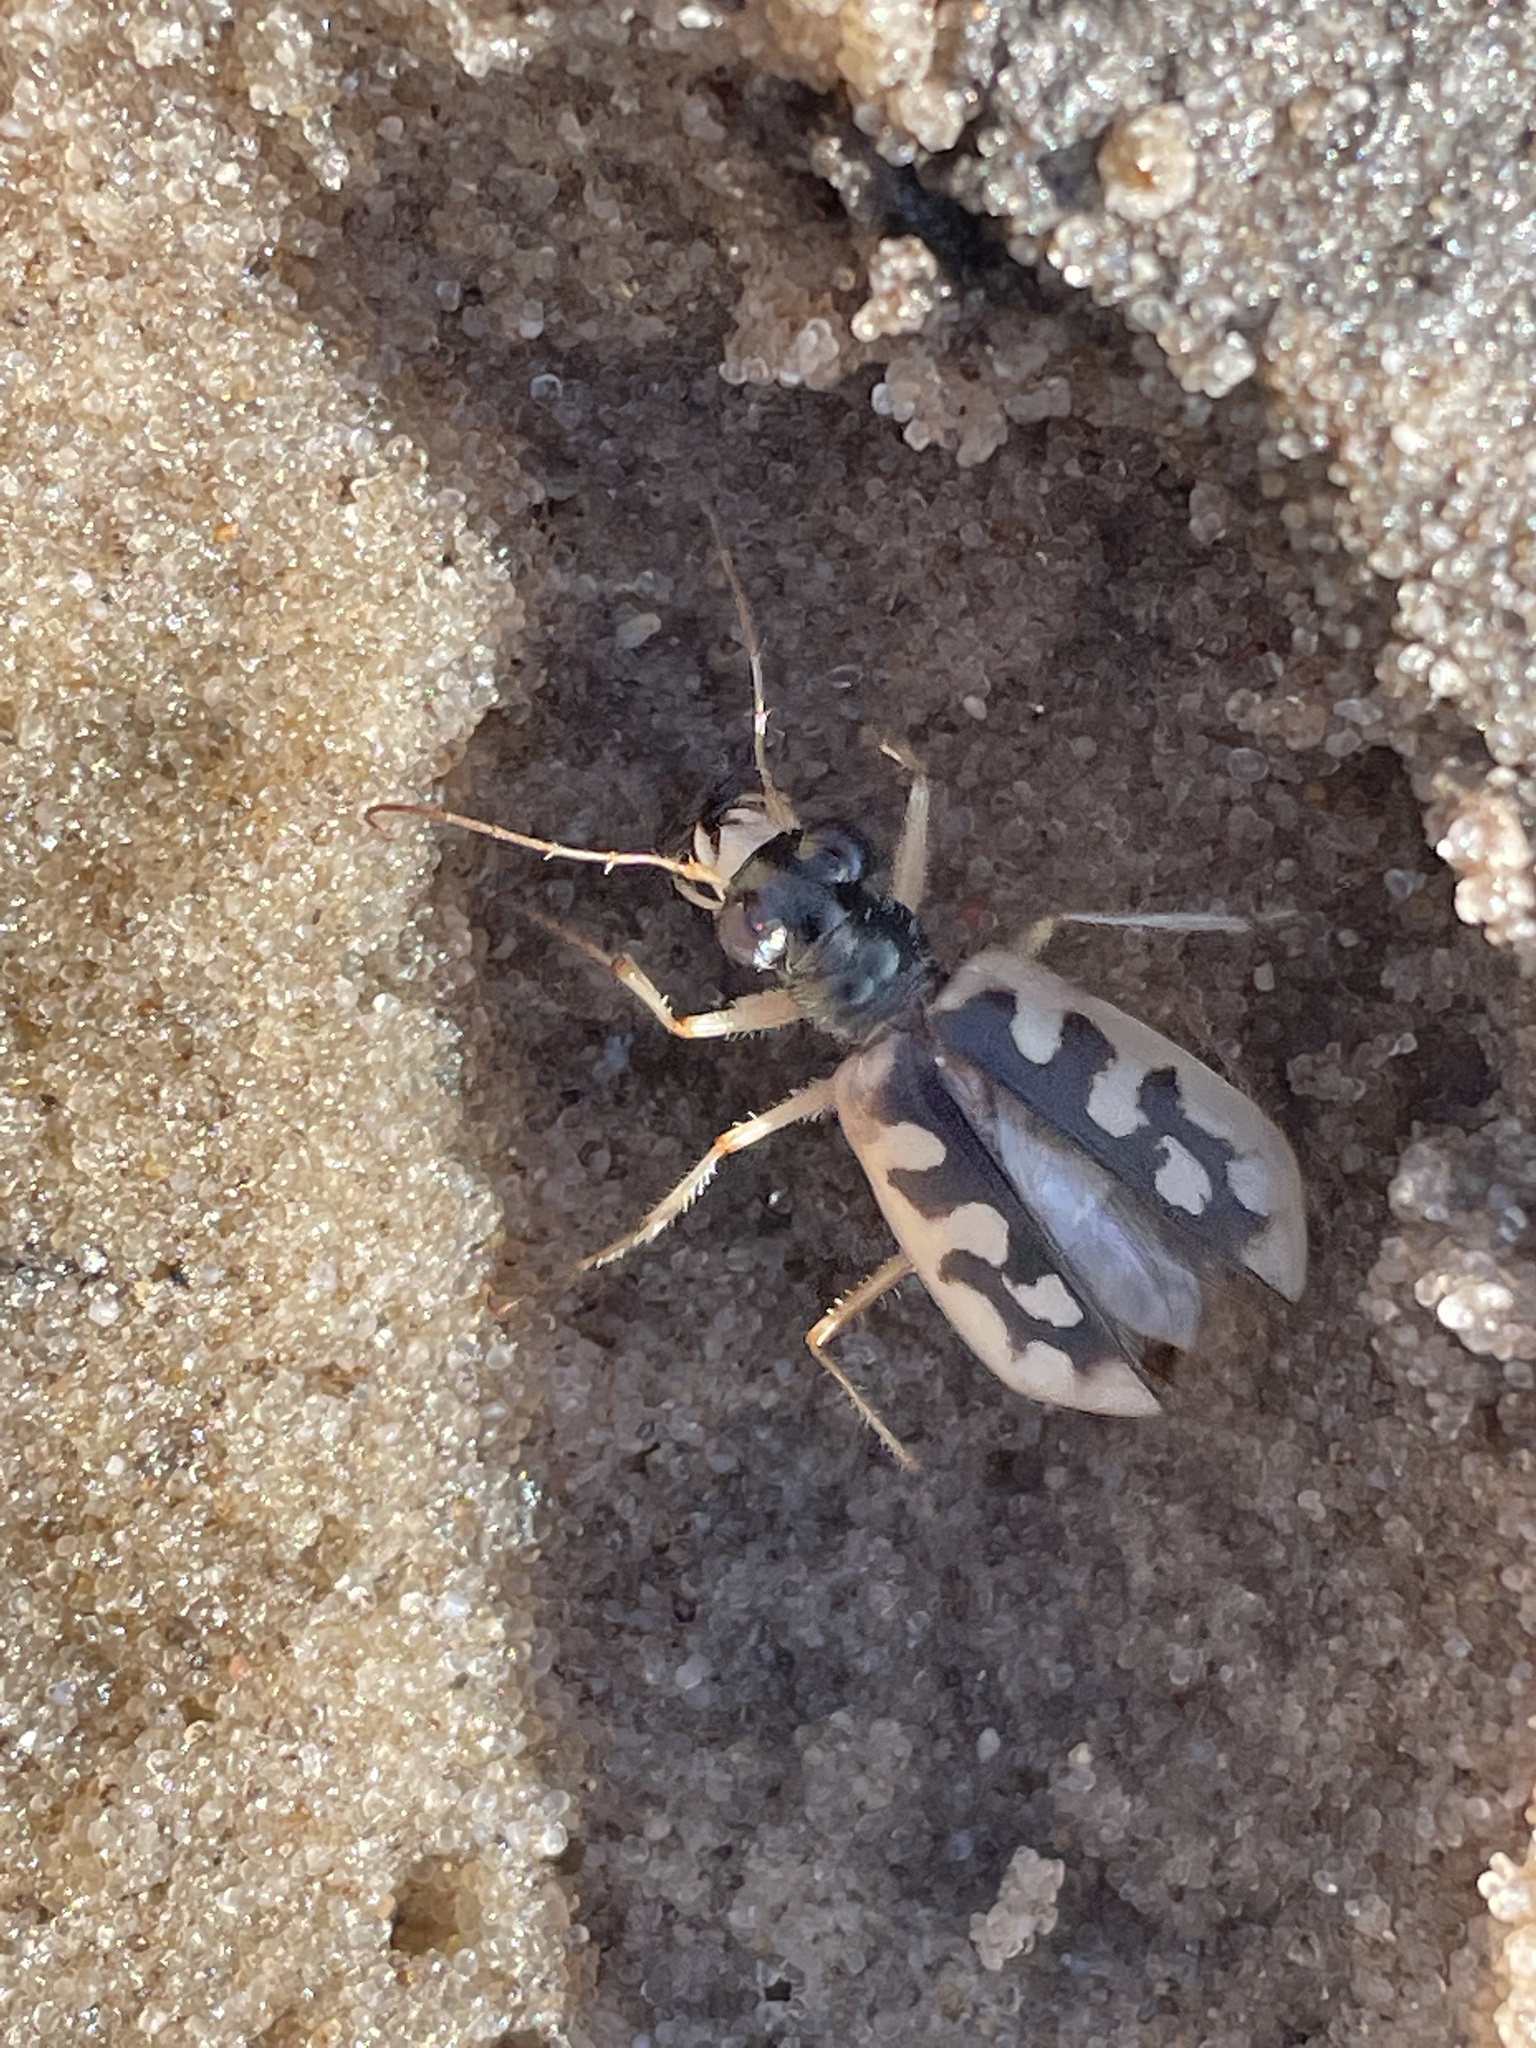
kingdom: Animalia
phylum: Arthropoda
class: Insecta
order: Coleoptera
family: Carabidae
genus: Cicindela
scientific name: Cicindela asperula
